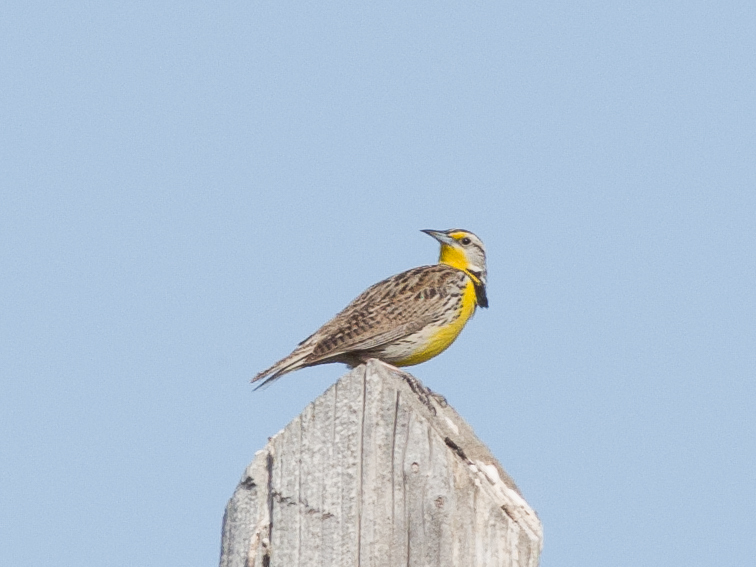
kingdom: Animalia
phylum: Chordata
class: Aves
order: Passeriformes
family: Icteridae
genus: Sturnella
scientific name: Sturnella neglecta
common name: Western meadowlark
